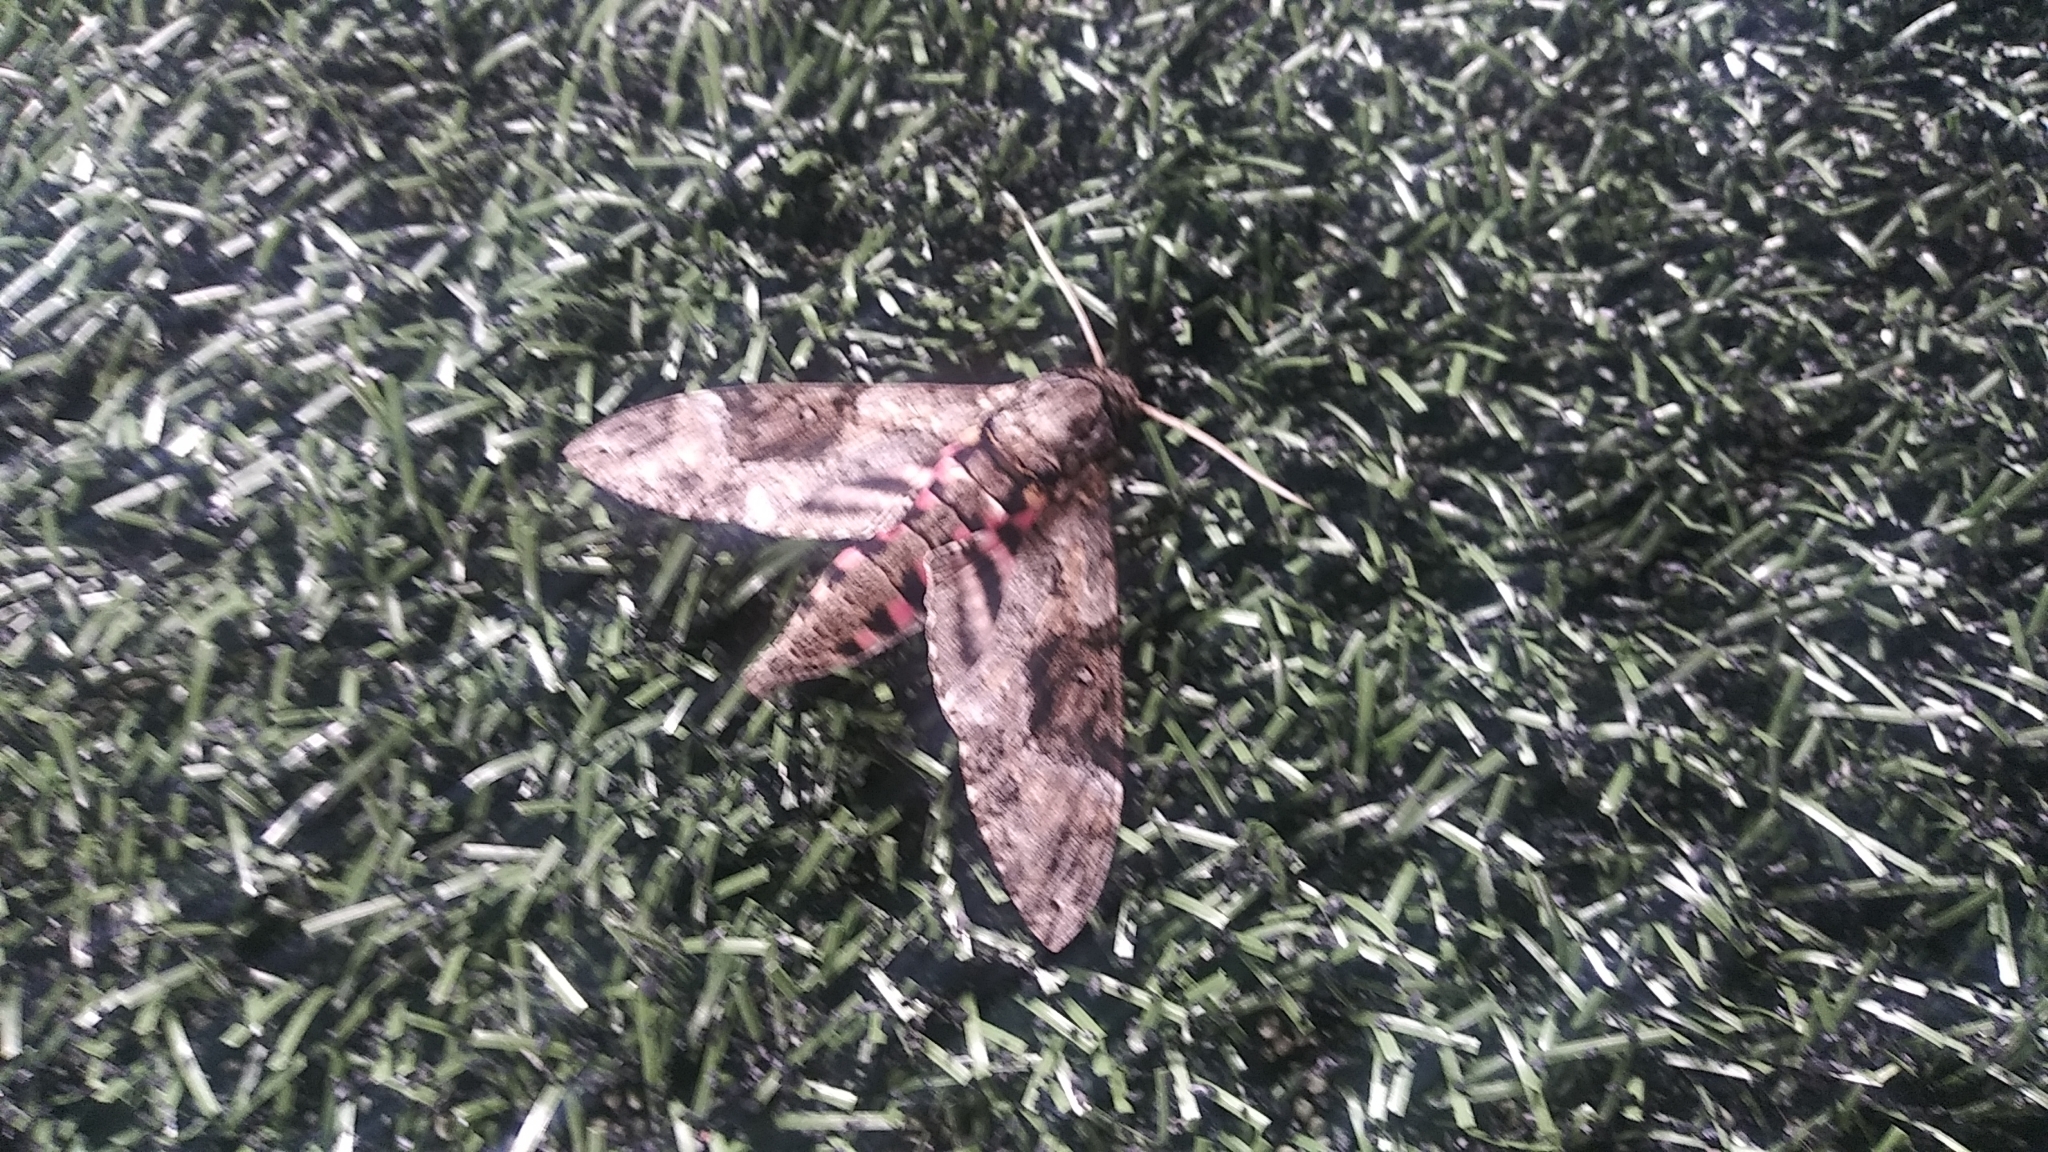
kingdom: Animalia
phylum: Arthropoda
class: Insecta
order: Lepidoptera
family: Sphingidae
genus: Agrius
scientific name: Agrius cingulata
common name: Pink-spotted hawkmoth
